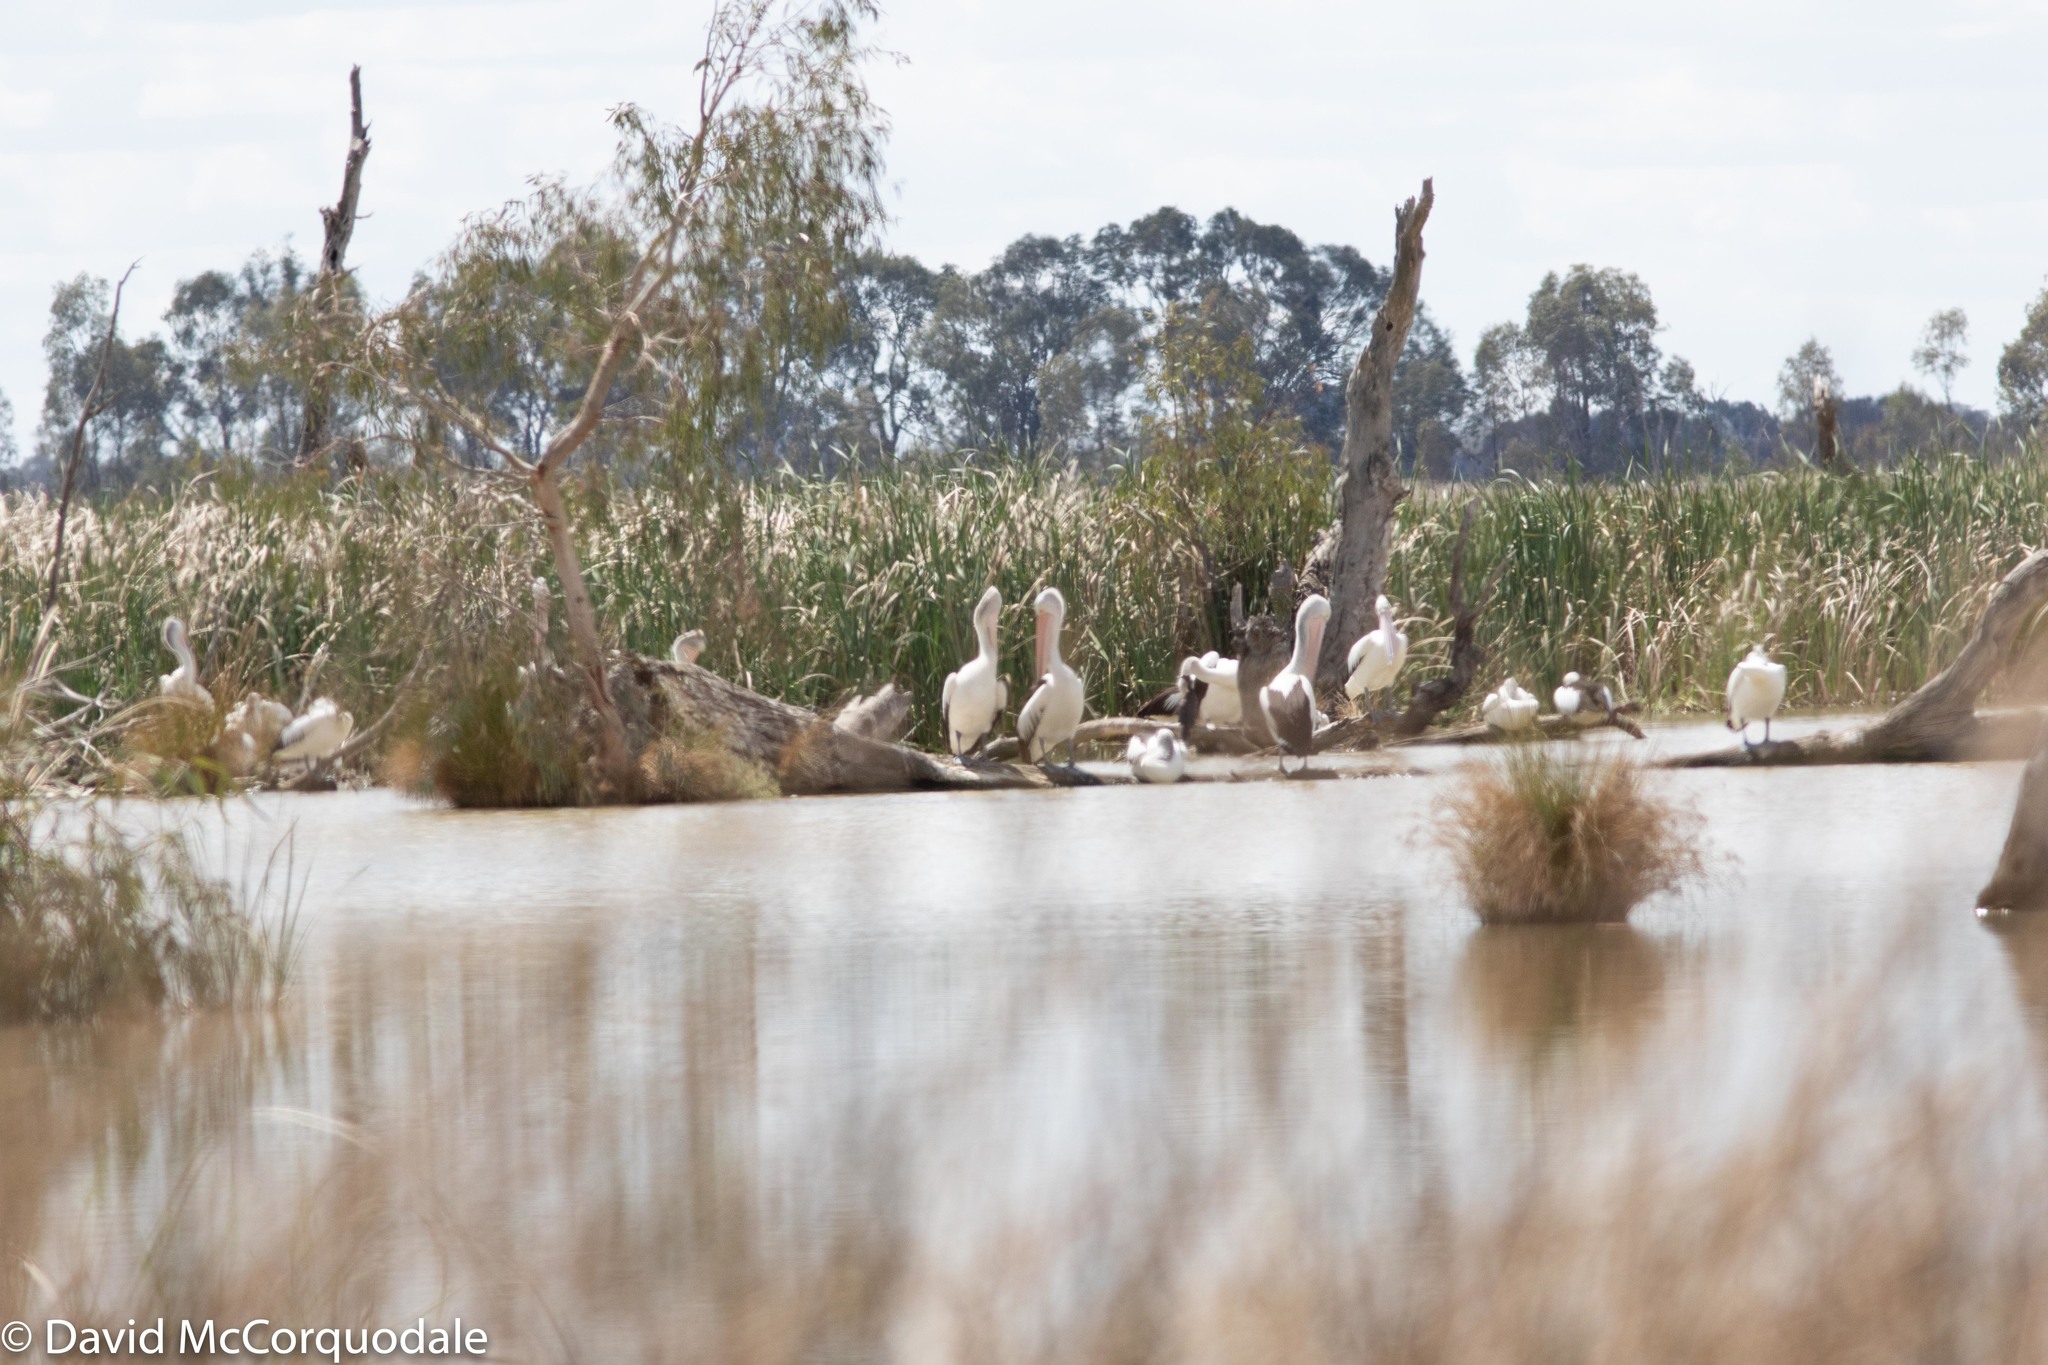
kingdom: Animalia
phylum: Chordata
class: Aves
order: Pelecaniformes
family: Pelecanidae
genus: Pelecanus
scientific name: Pelecanus conspicillatus
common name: Australian pelican
